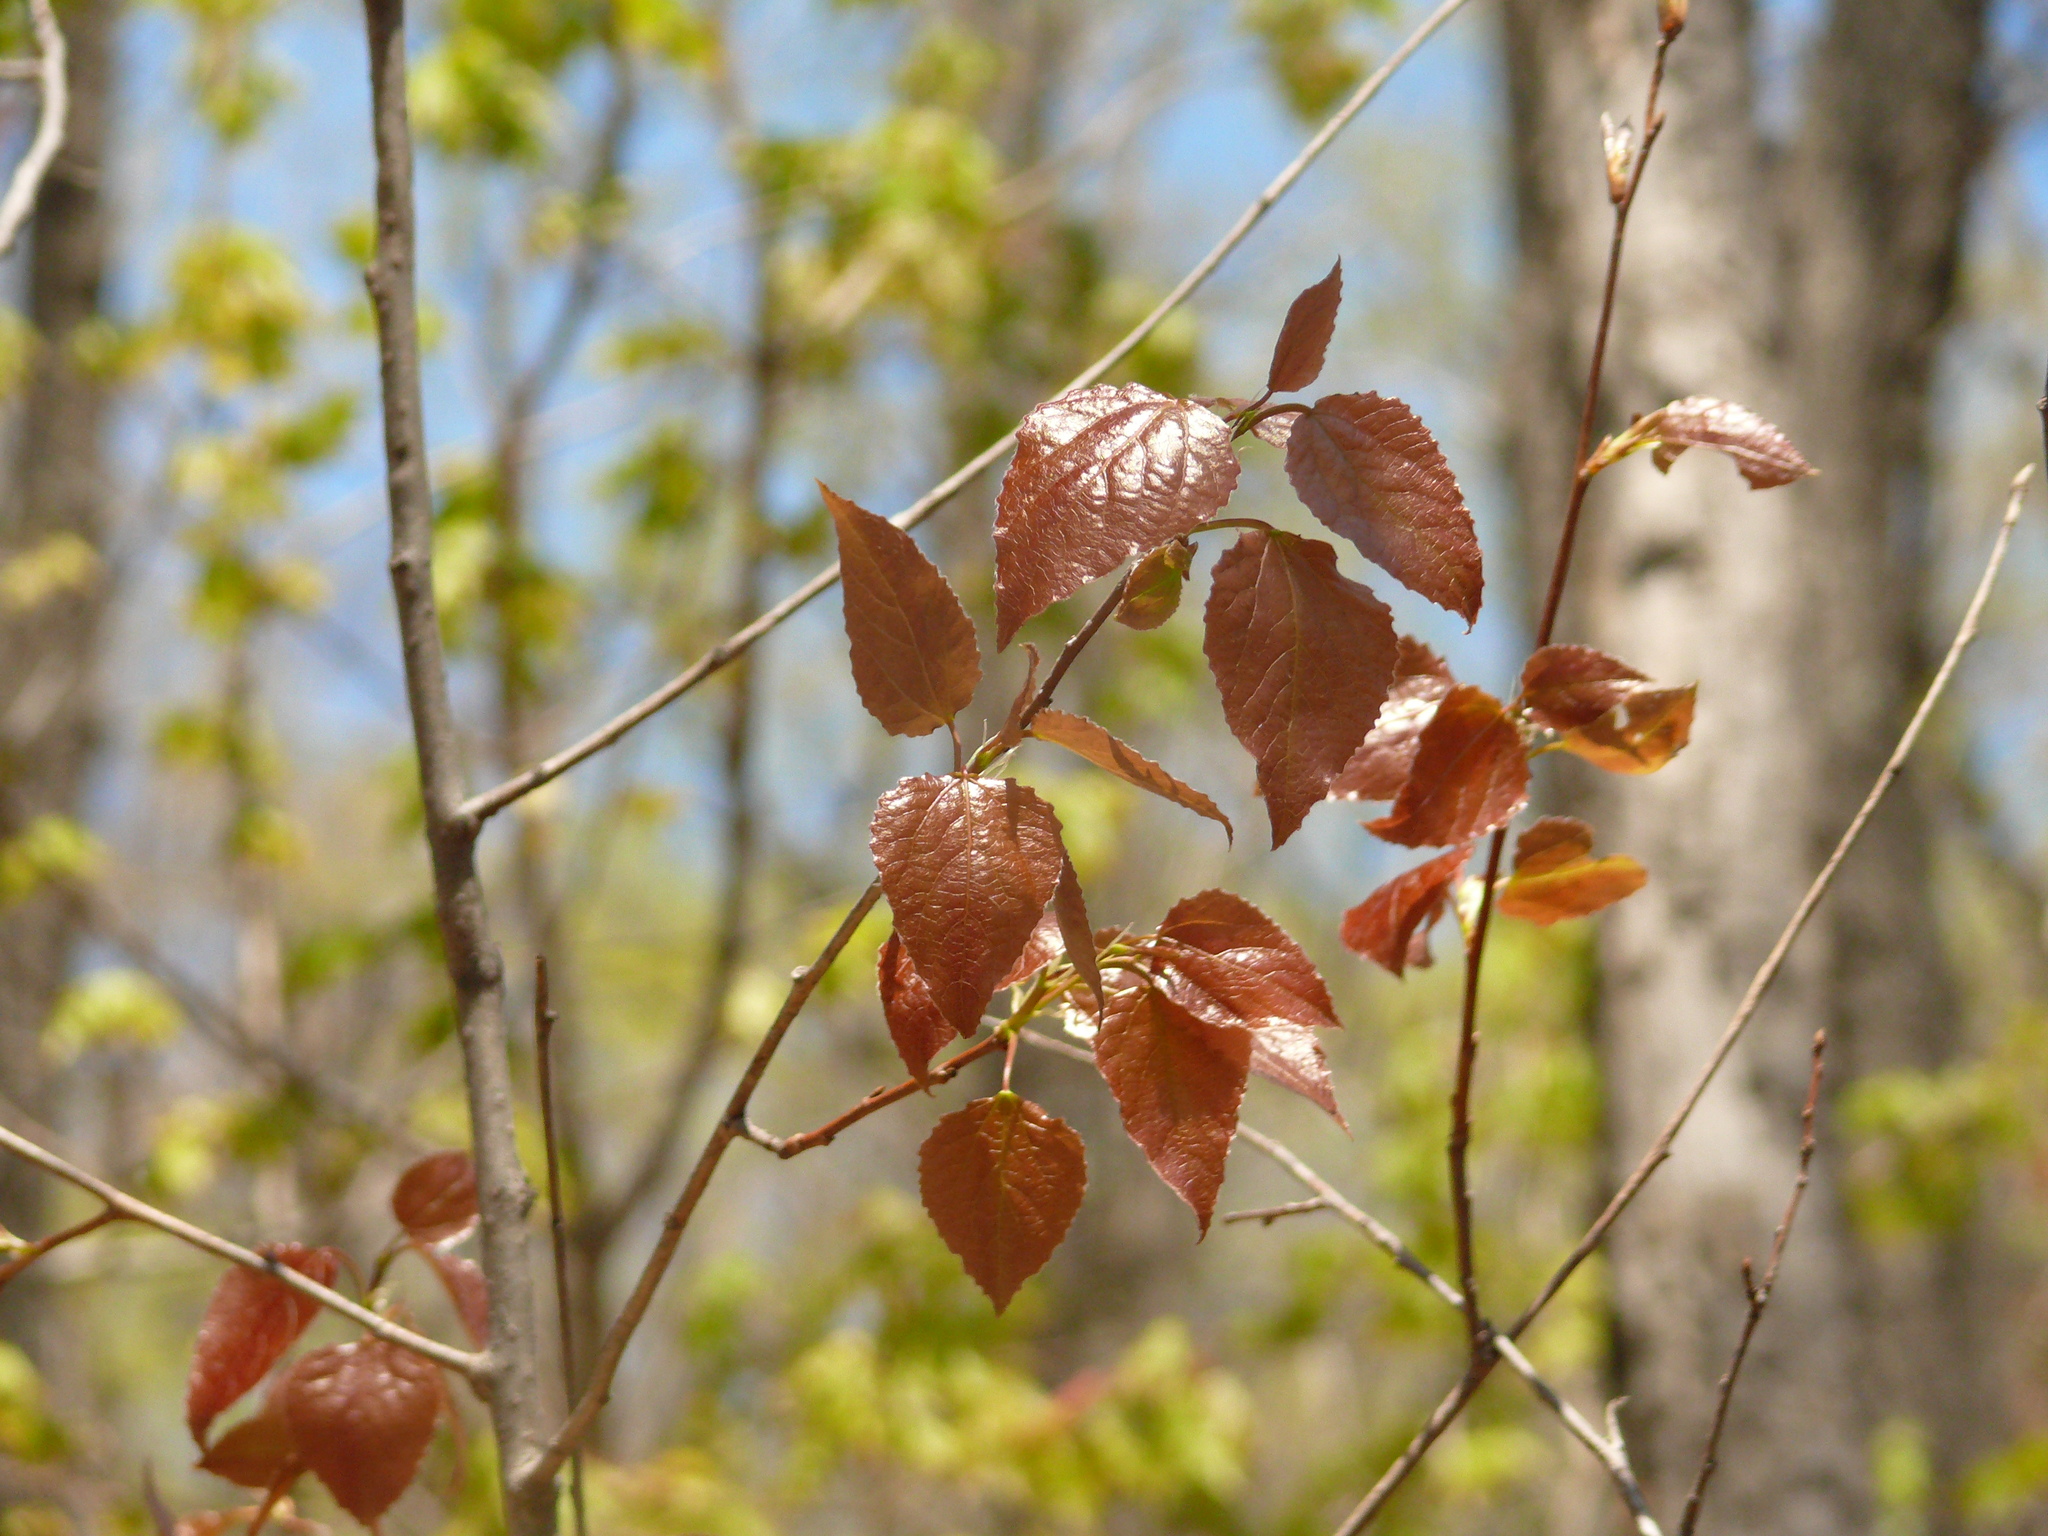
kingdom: Plantae
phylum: Tracheophyta
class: Magnoliopsida
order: Malpighiales
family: Salicaceae
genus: Populus
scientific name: Populus tremula
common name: European aspen
